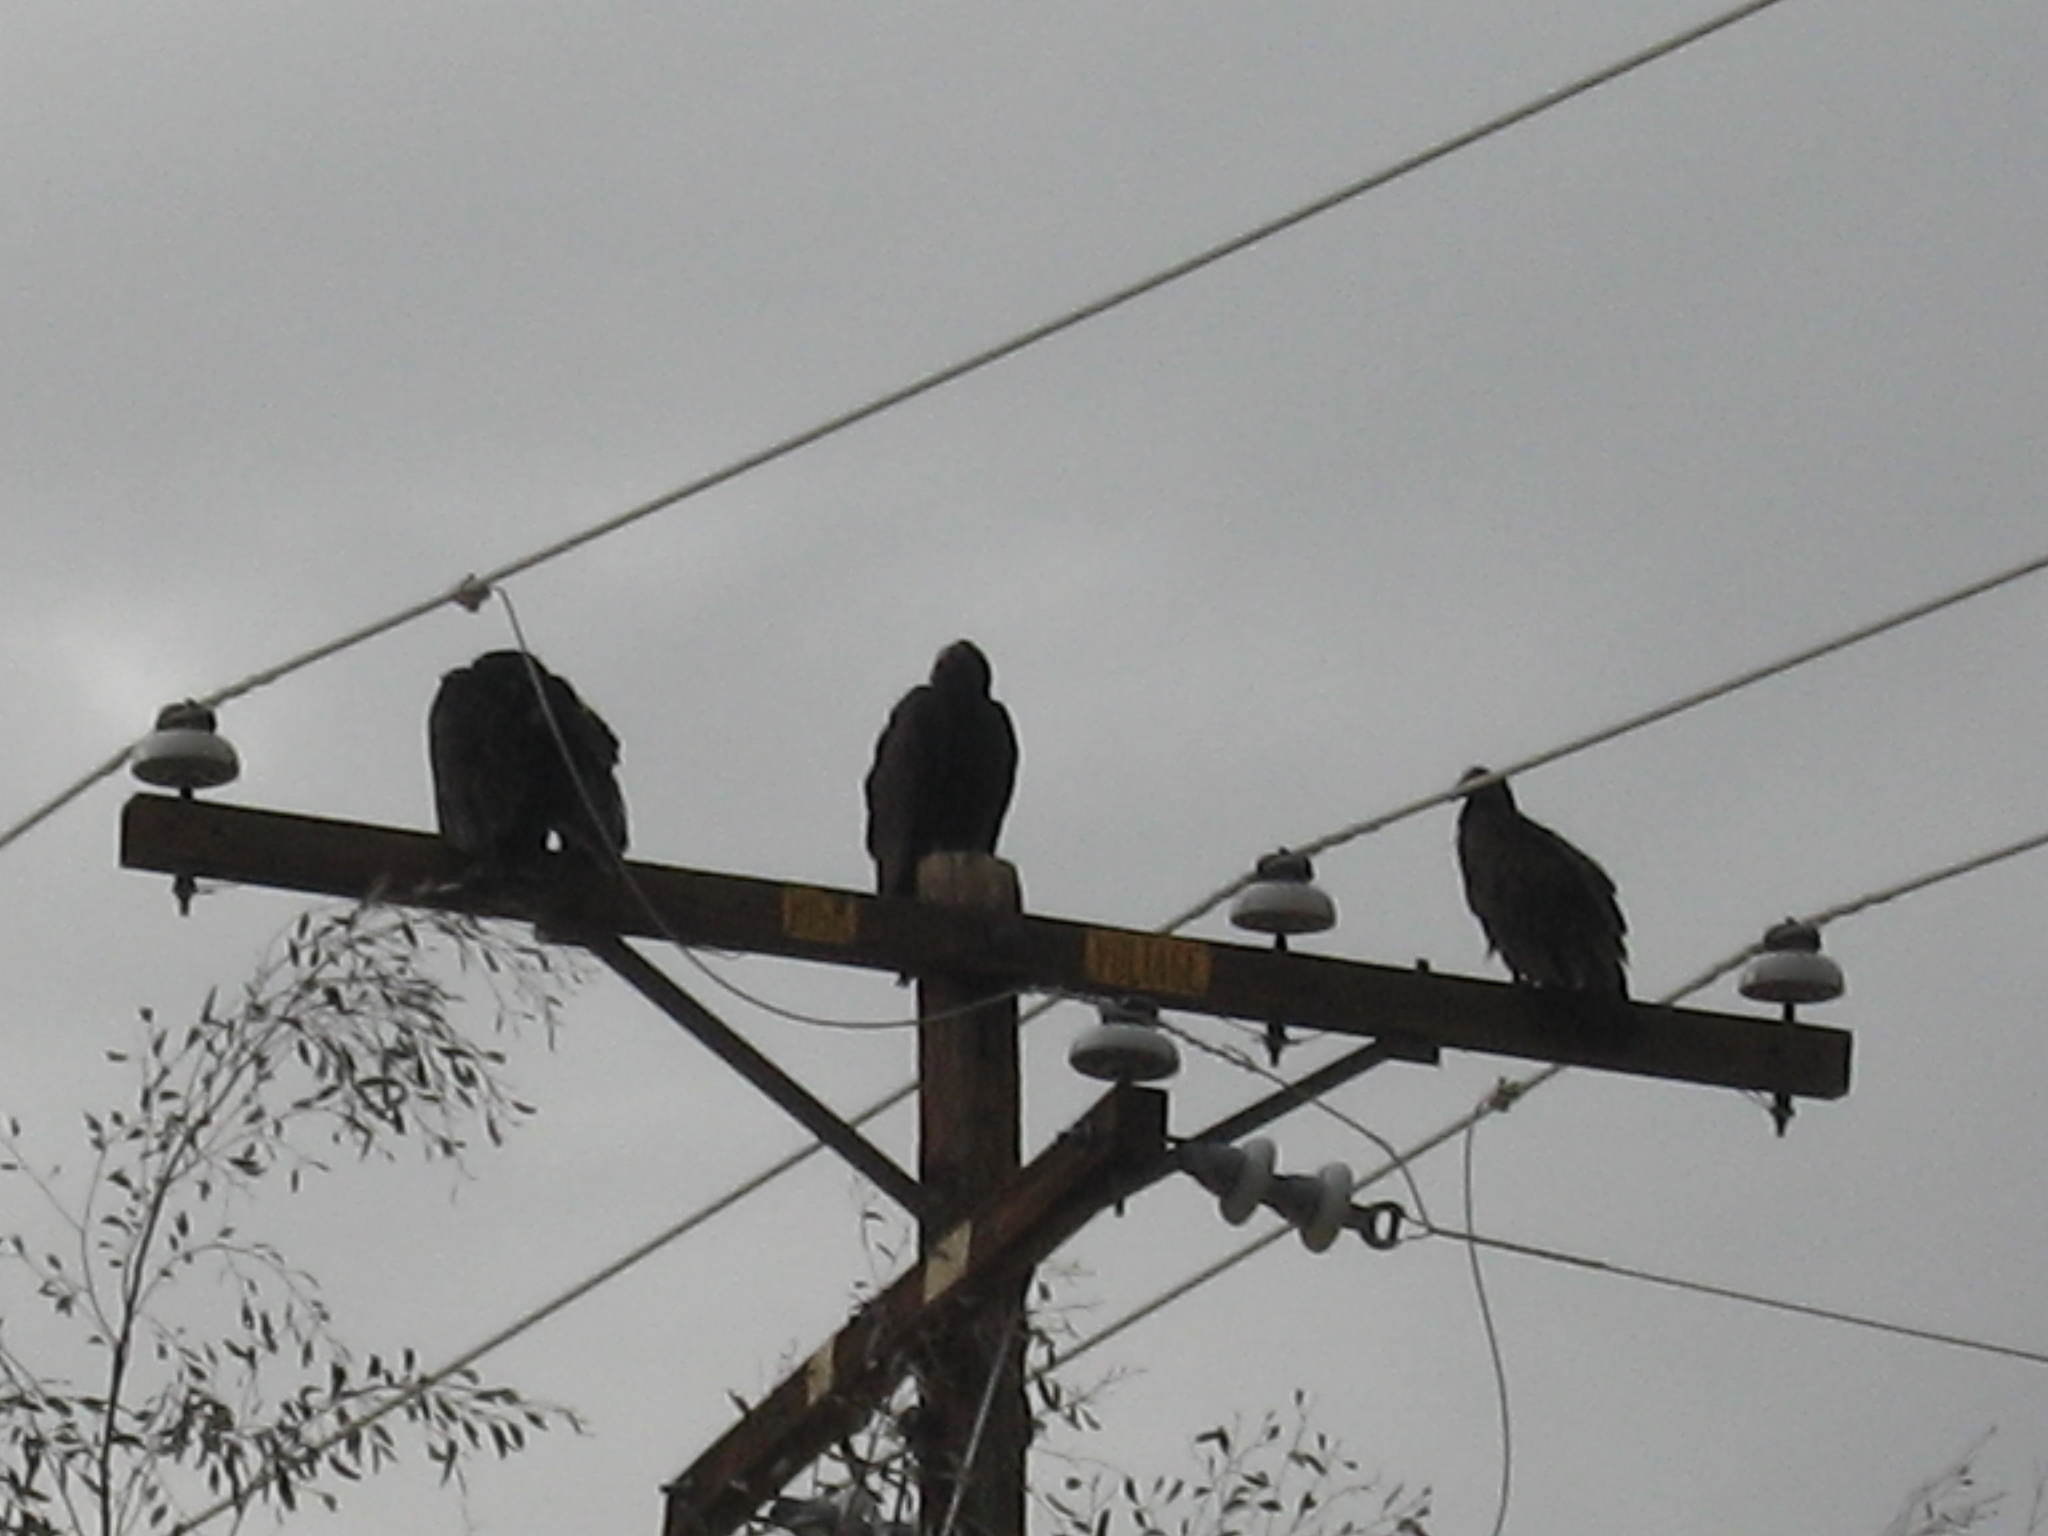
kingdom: Animalia
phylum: Chordata
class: Aves
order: Accipitriformes
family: Cathartidae
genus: Cathartes
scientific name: Cathartes aura
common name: Turkey vulture
